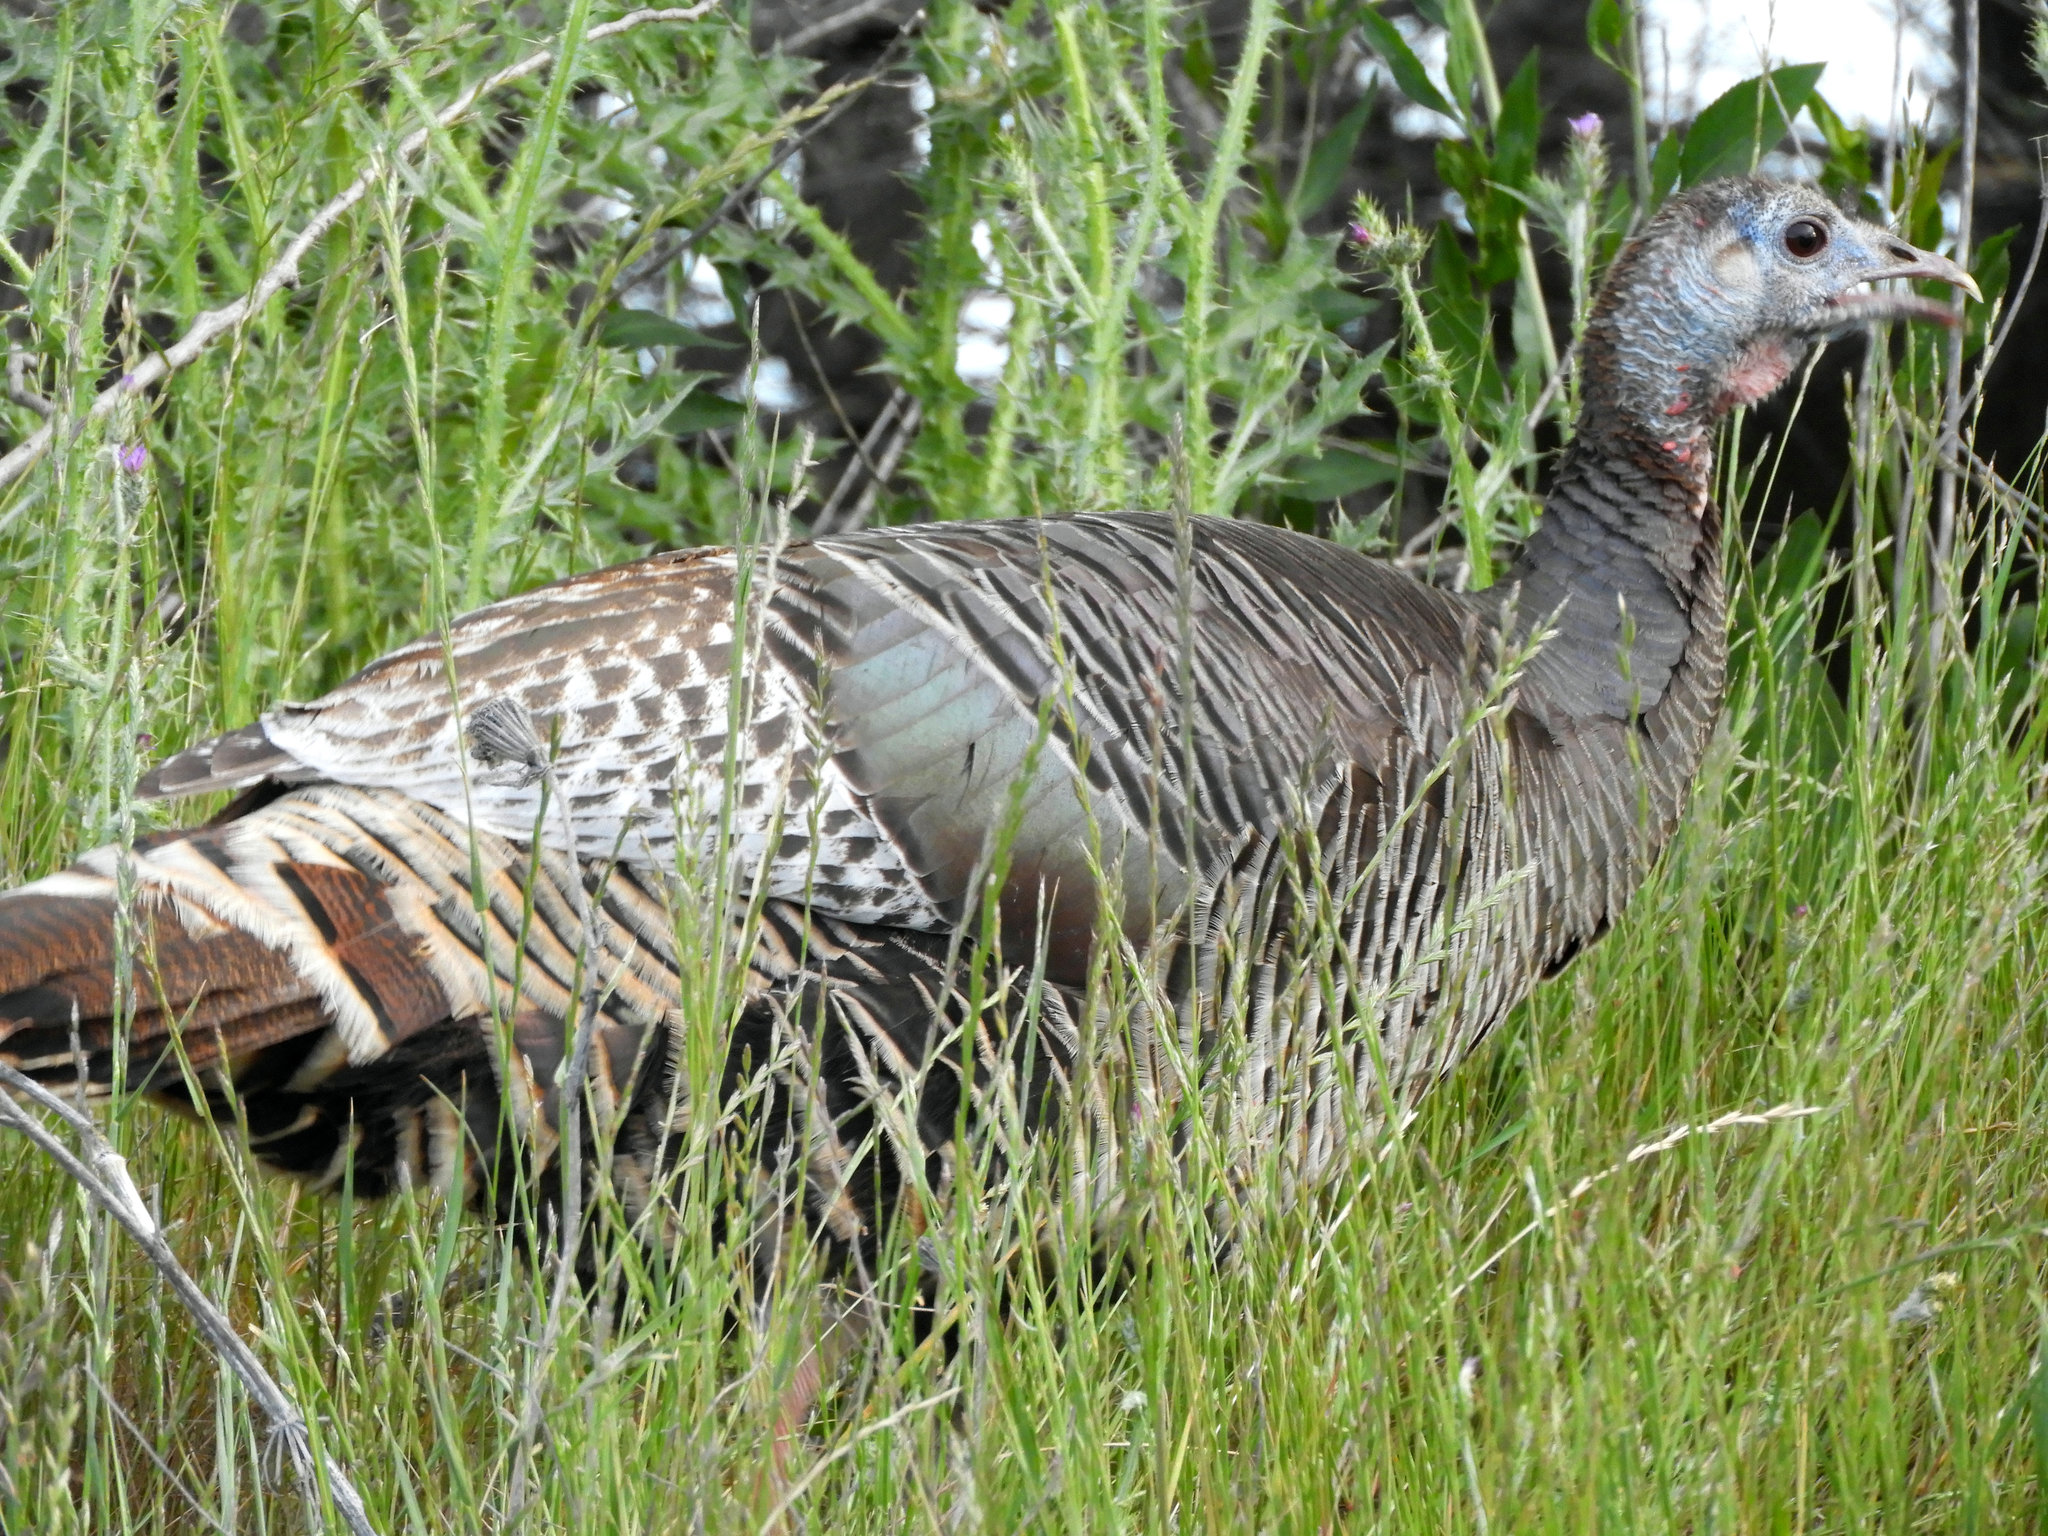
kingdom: Animalia
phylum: Chordata
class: Aves
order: Galliformes
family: Phasianidae
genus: Meleagris
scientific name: Meleagris gallopavo
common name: Wild turkey
